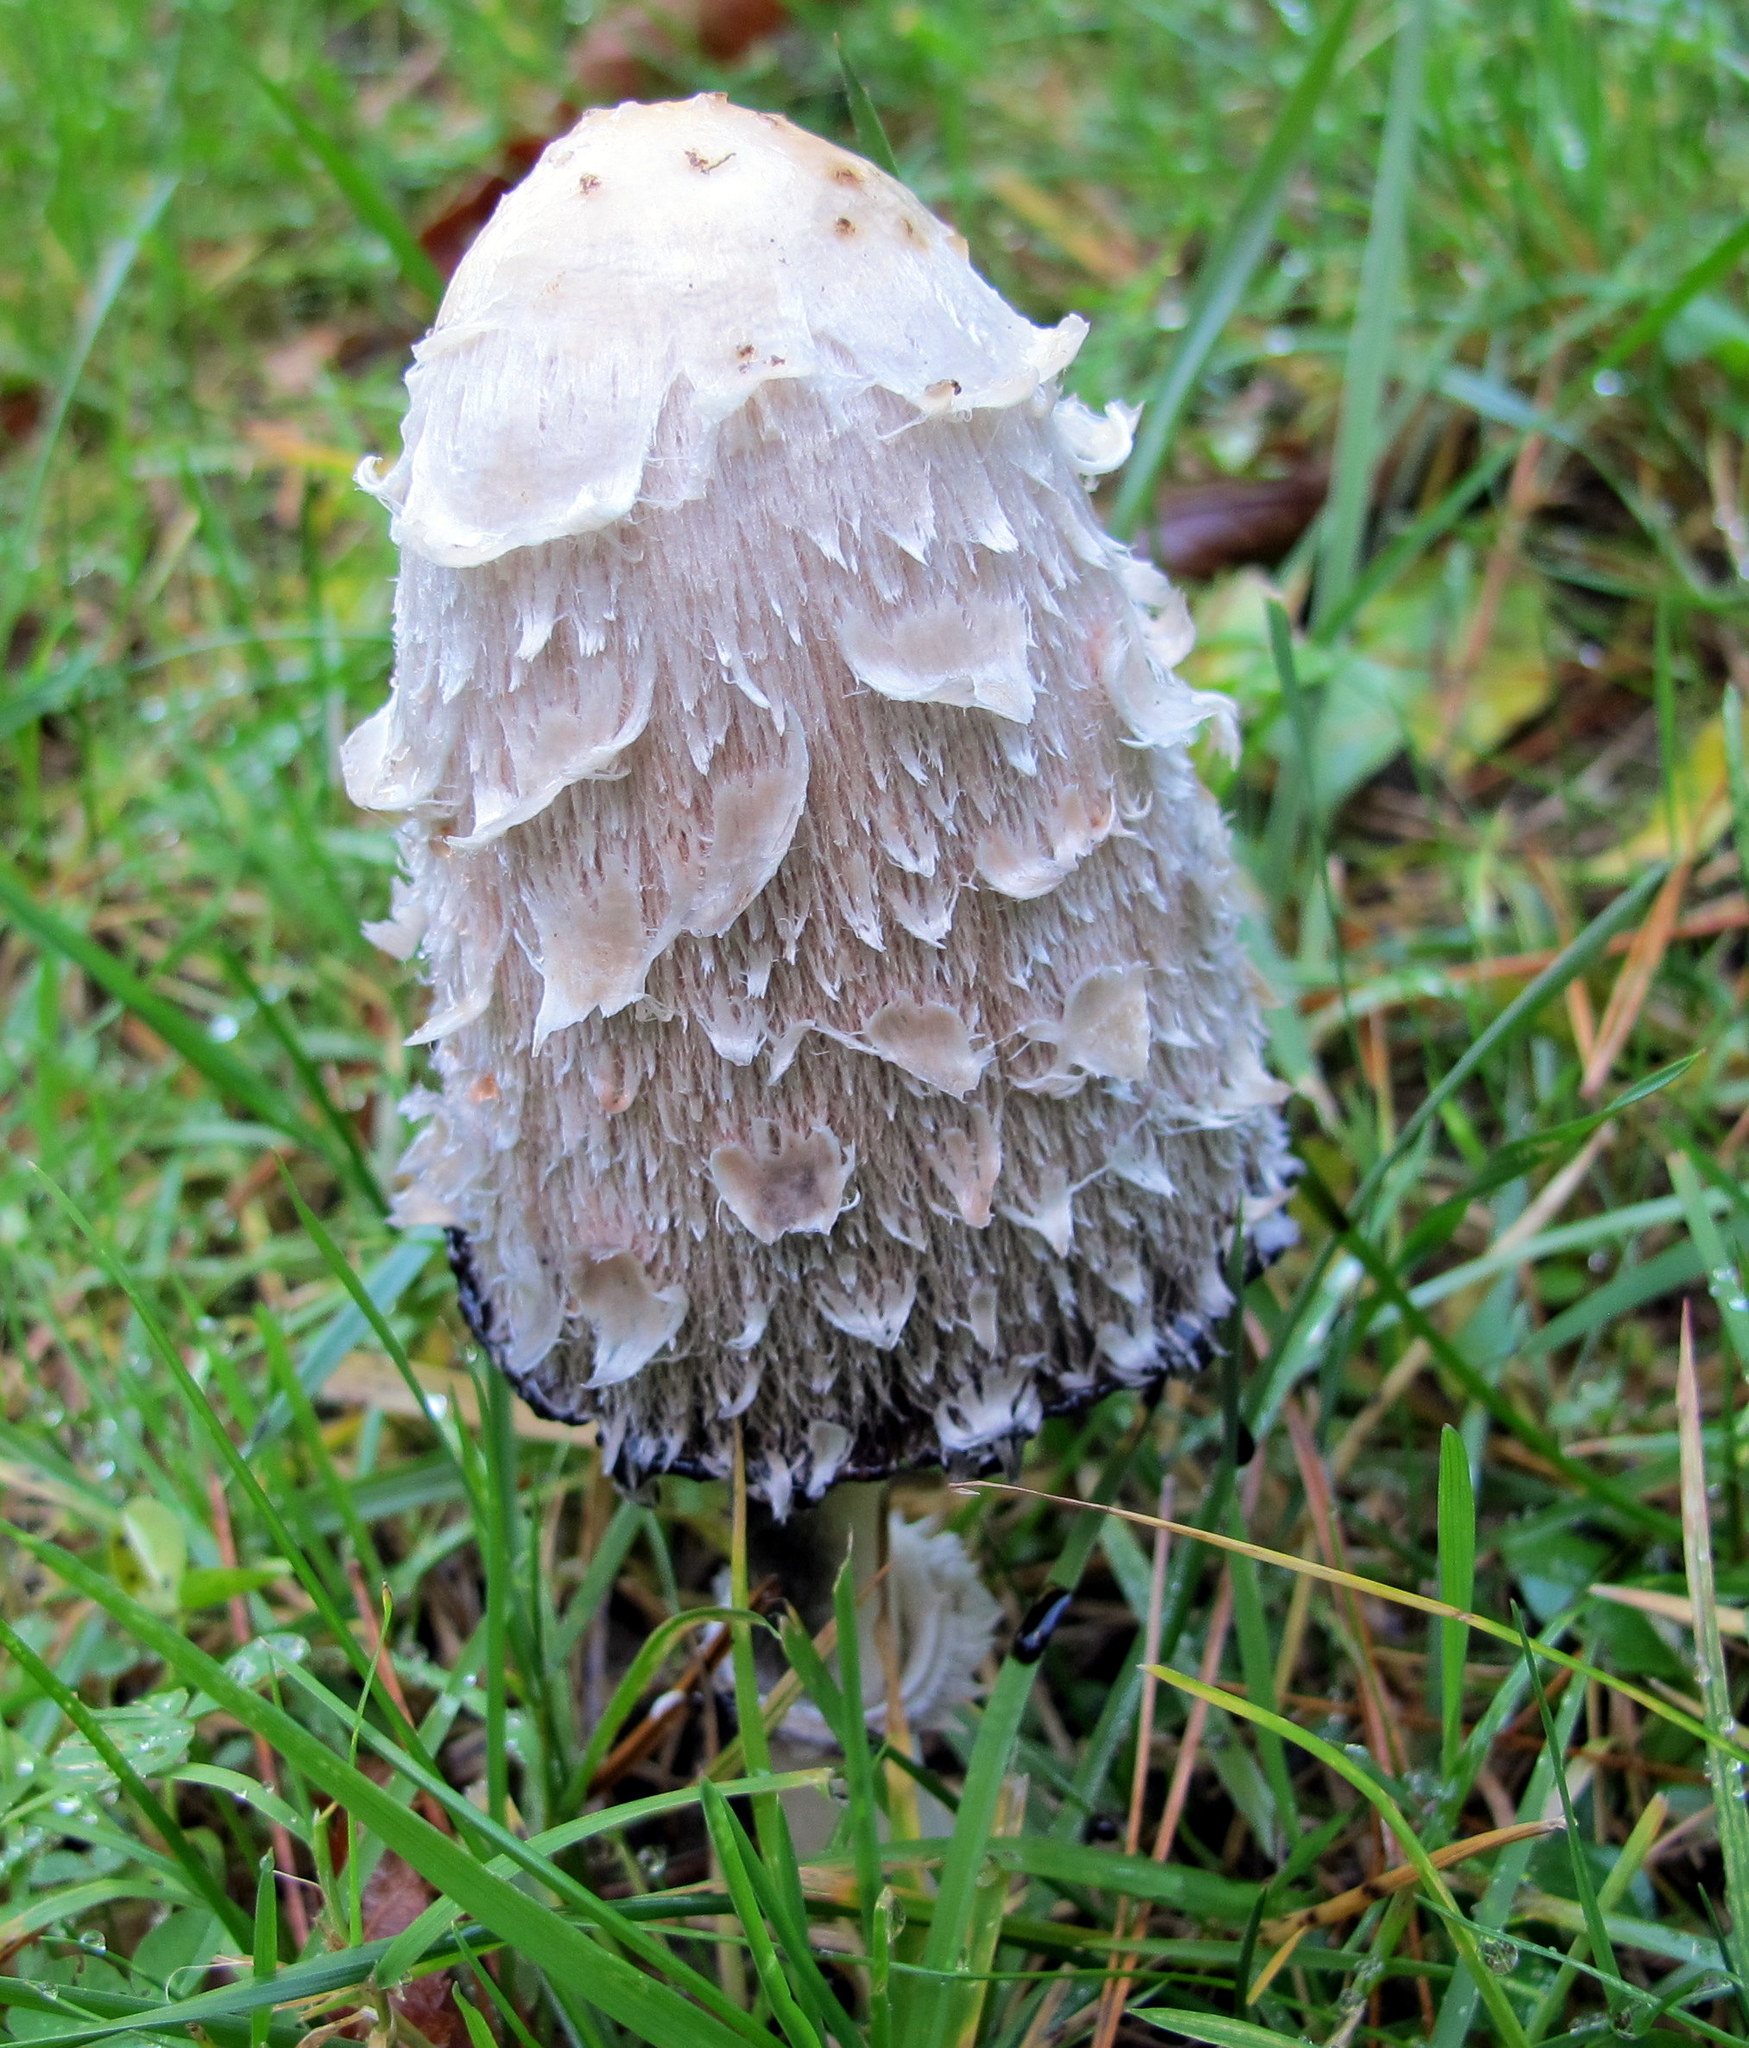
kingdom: Fungi
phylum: Basidiomycota
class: Agaricomycetes
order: Agaricales
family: Agaricaceae
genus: Coprinus
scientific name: Coprinus comatus
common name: Lawyer's wig
